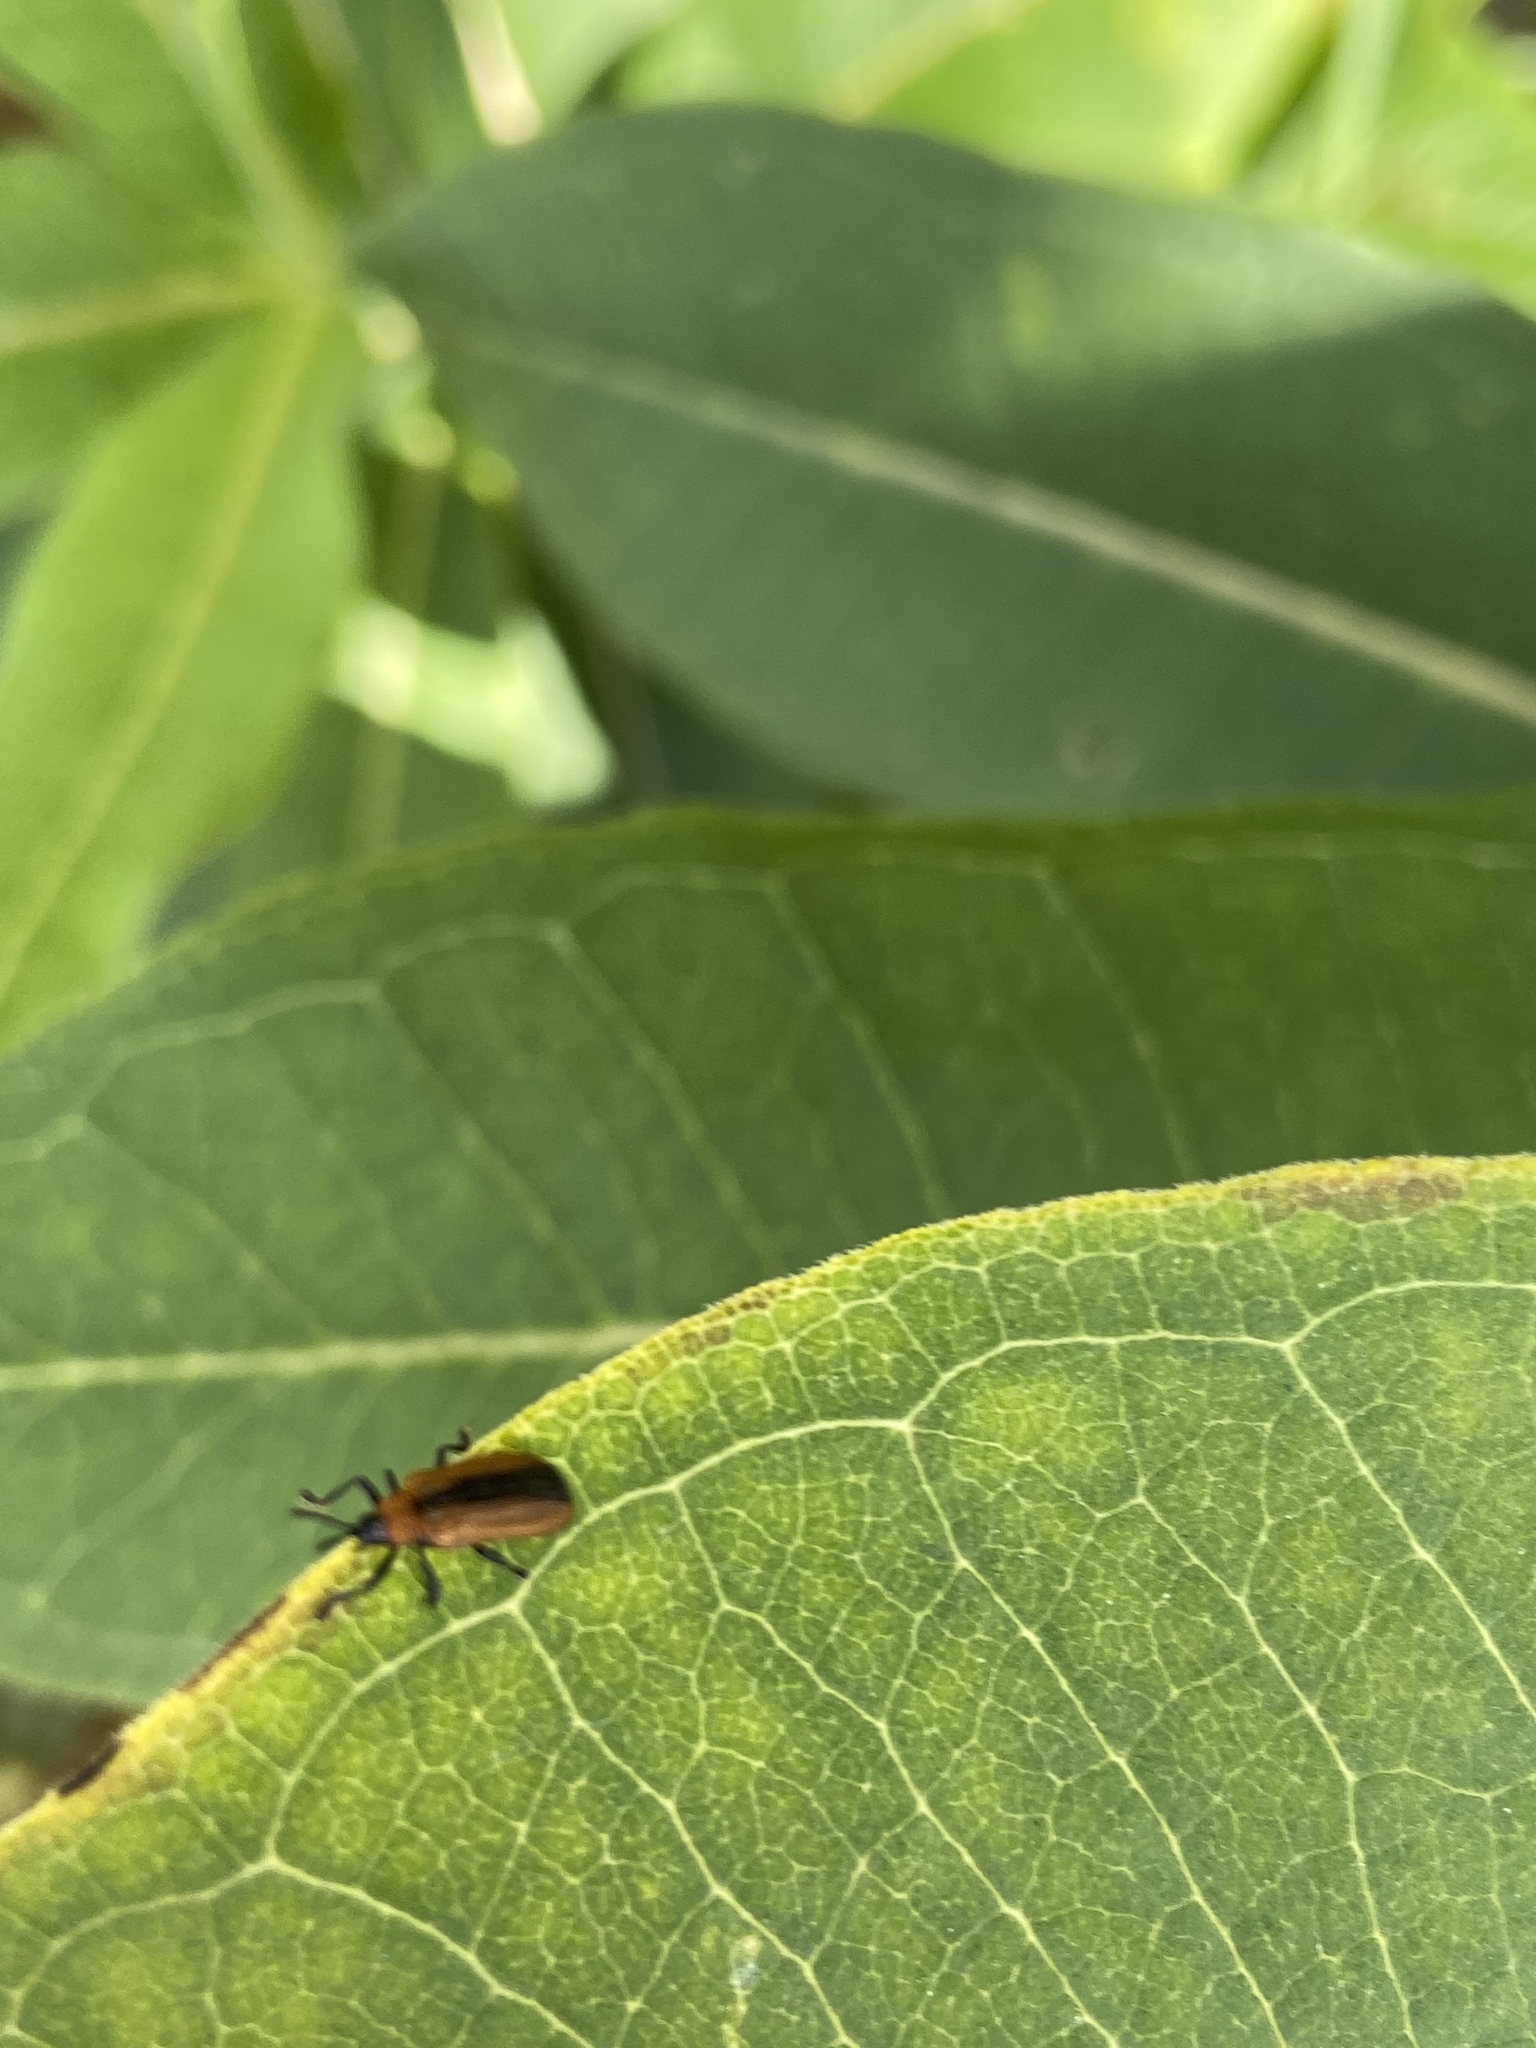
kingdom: Animalia
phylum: Arthropoda
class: Insecta
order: Coleoptera
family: Chrysomelidae
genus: Odontota
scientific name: Odontota dorsalis
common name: Locust leaf-miner beetle
